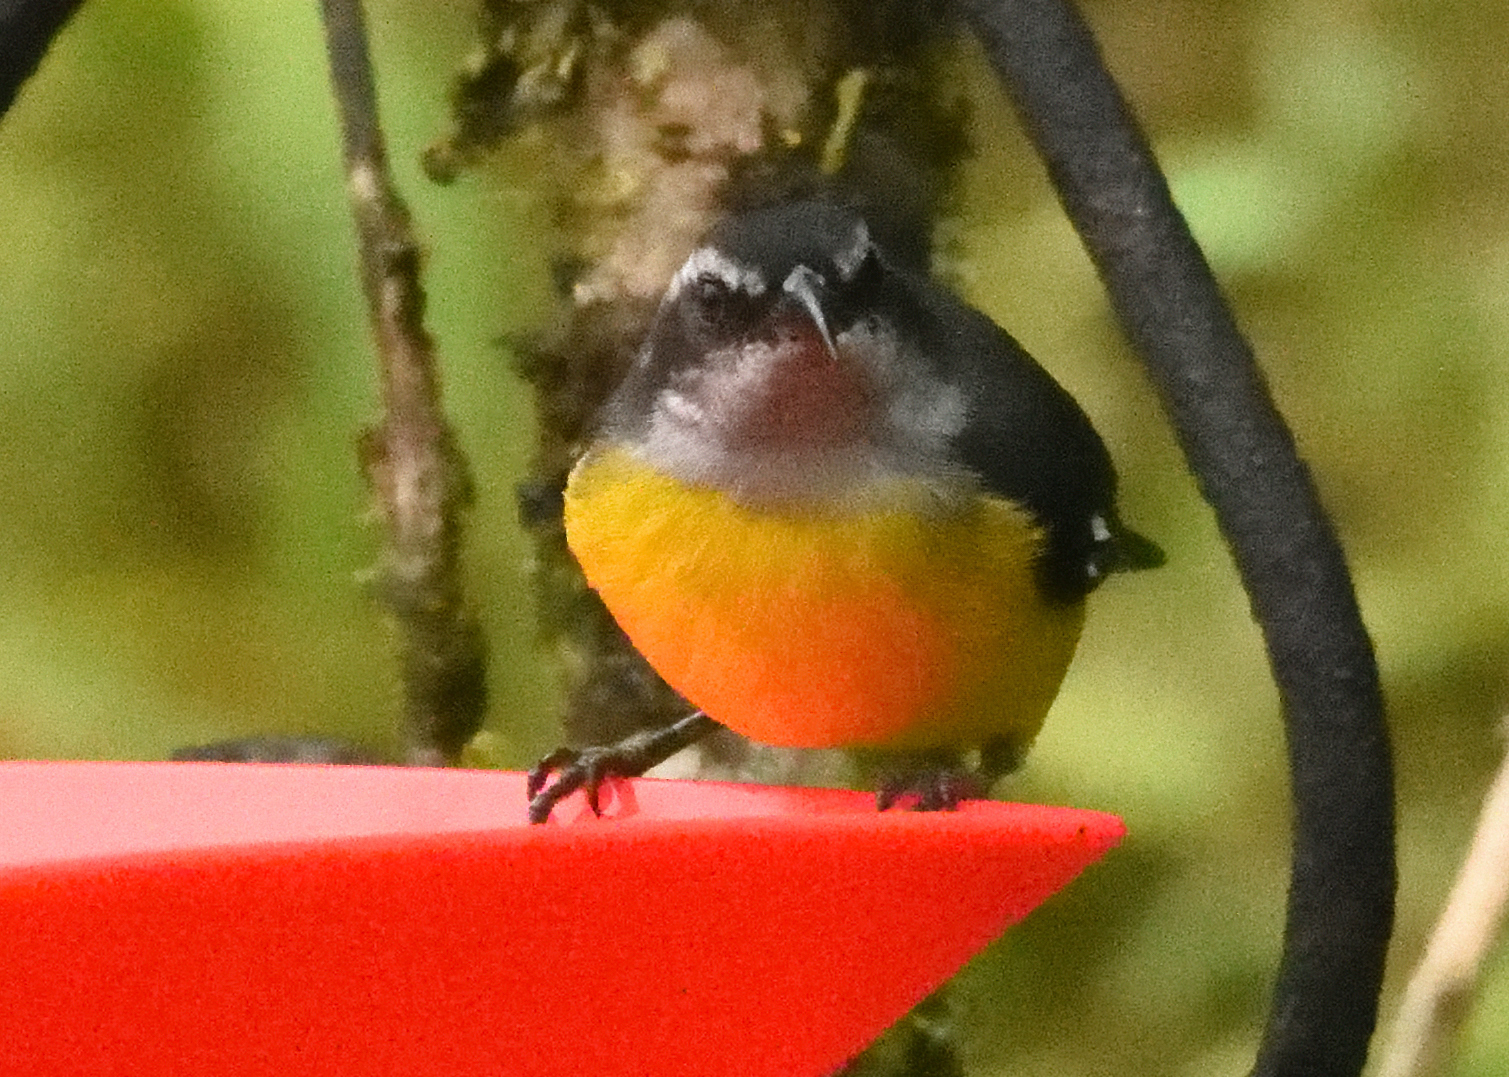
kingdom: Animalia
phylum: Chordata
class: Aves
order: Passeriformes
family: Thraupidae
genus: Coereba
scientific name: Coereba flaveola
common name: Bananaquit
